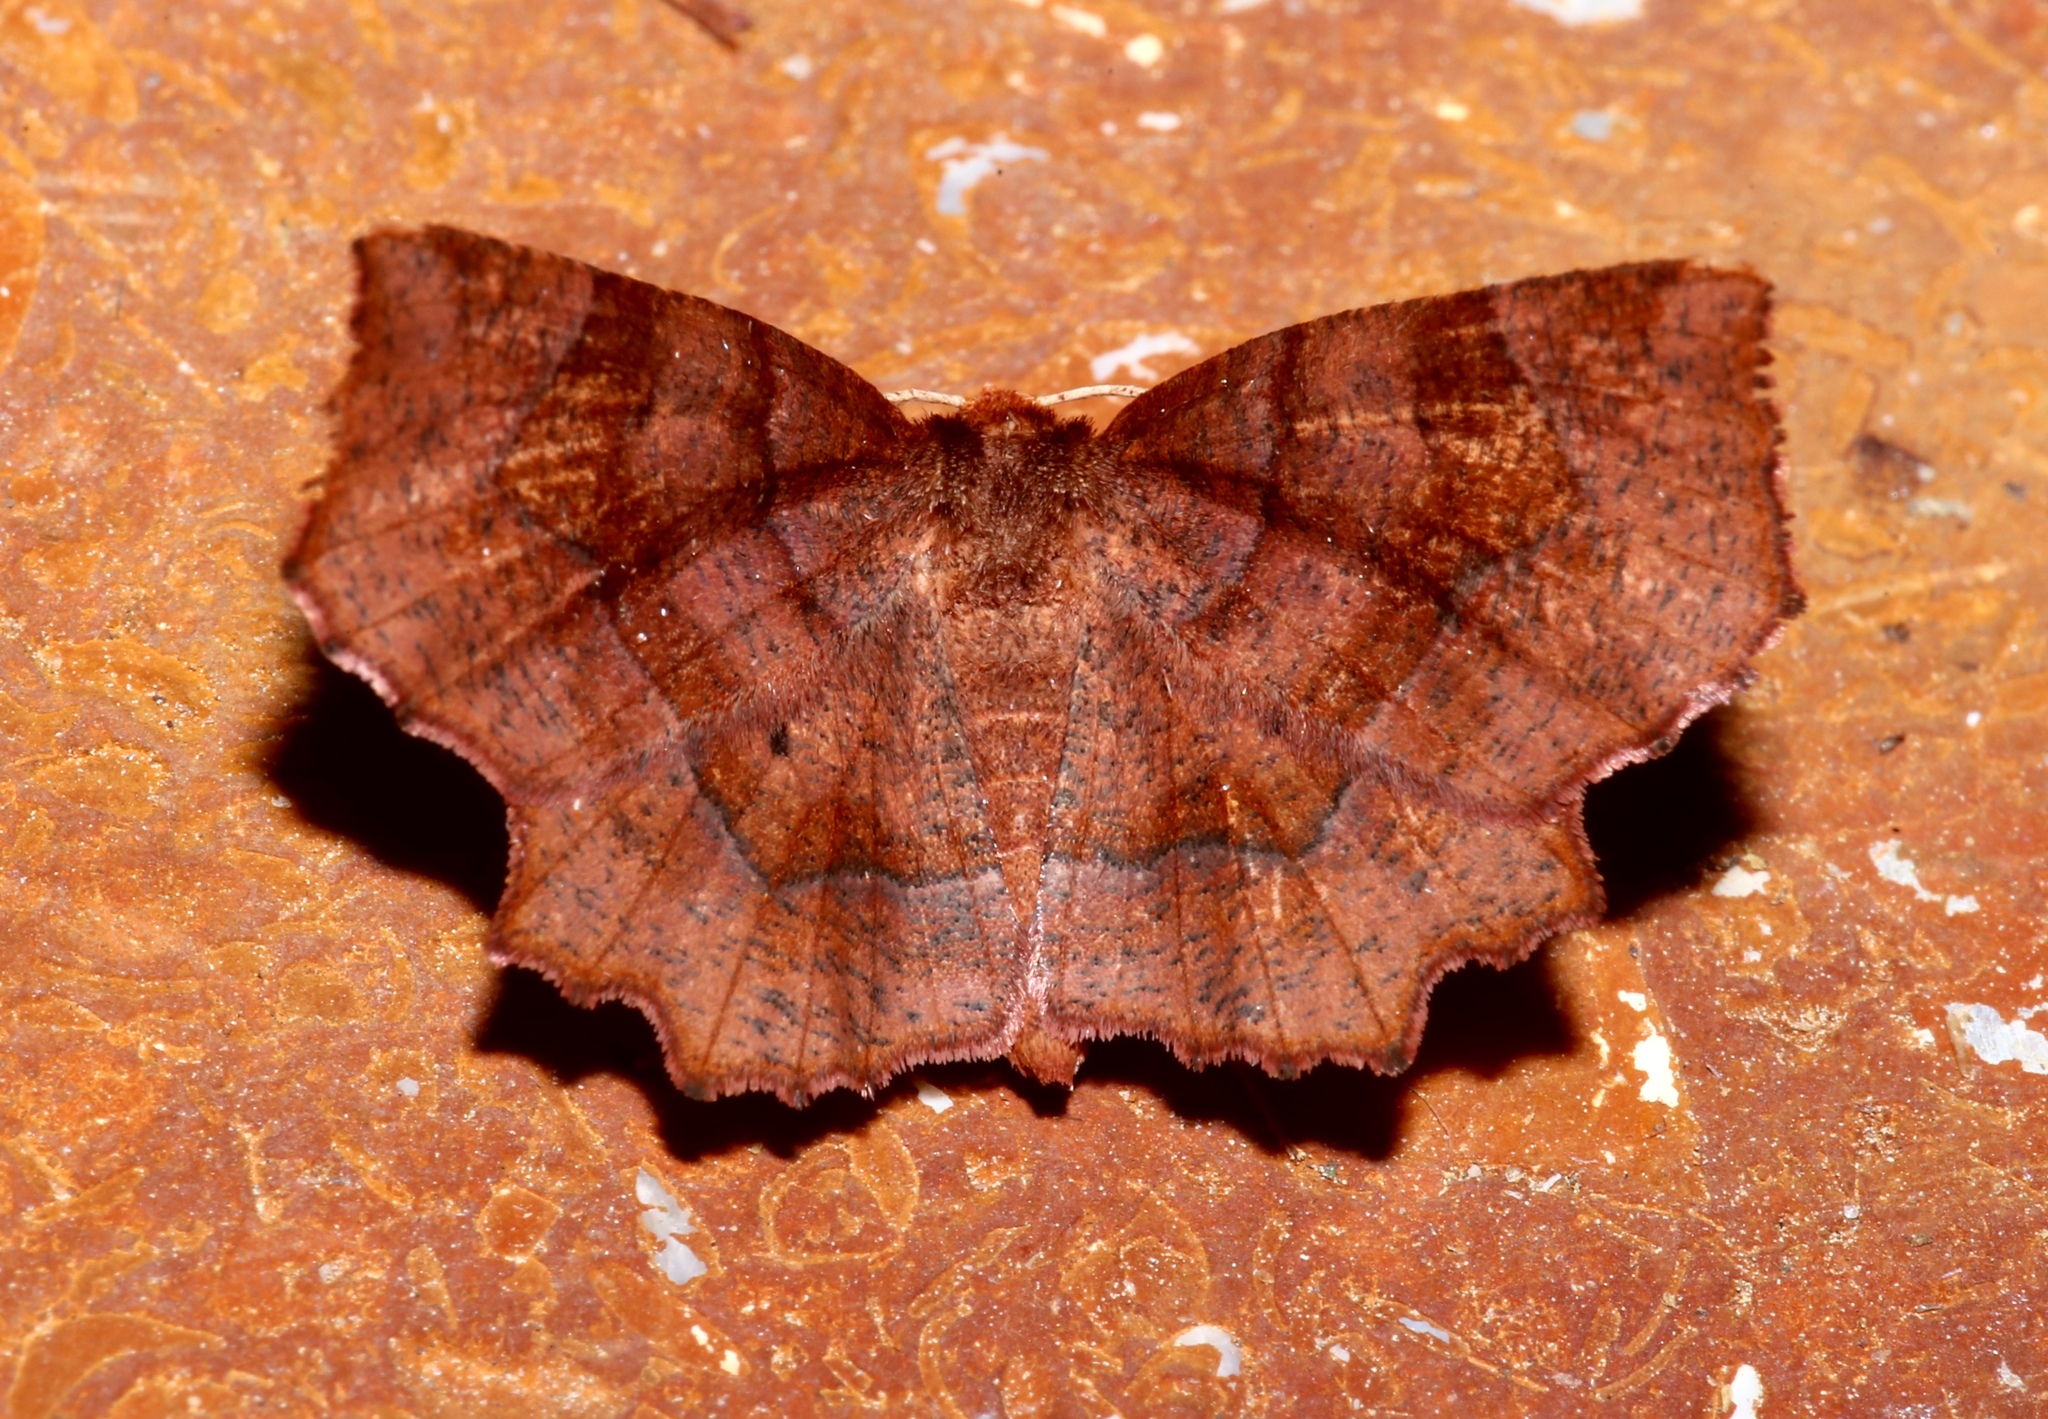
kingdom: Animalia
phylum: Arthropoda
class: Insecta
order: Lepidoptera
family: Geometridae
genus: Metarranthis
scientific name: Metarranthis homuraria
